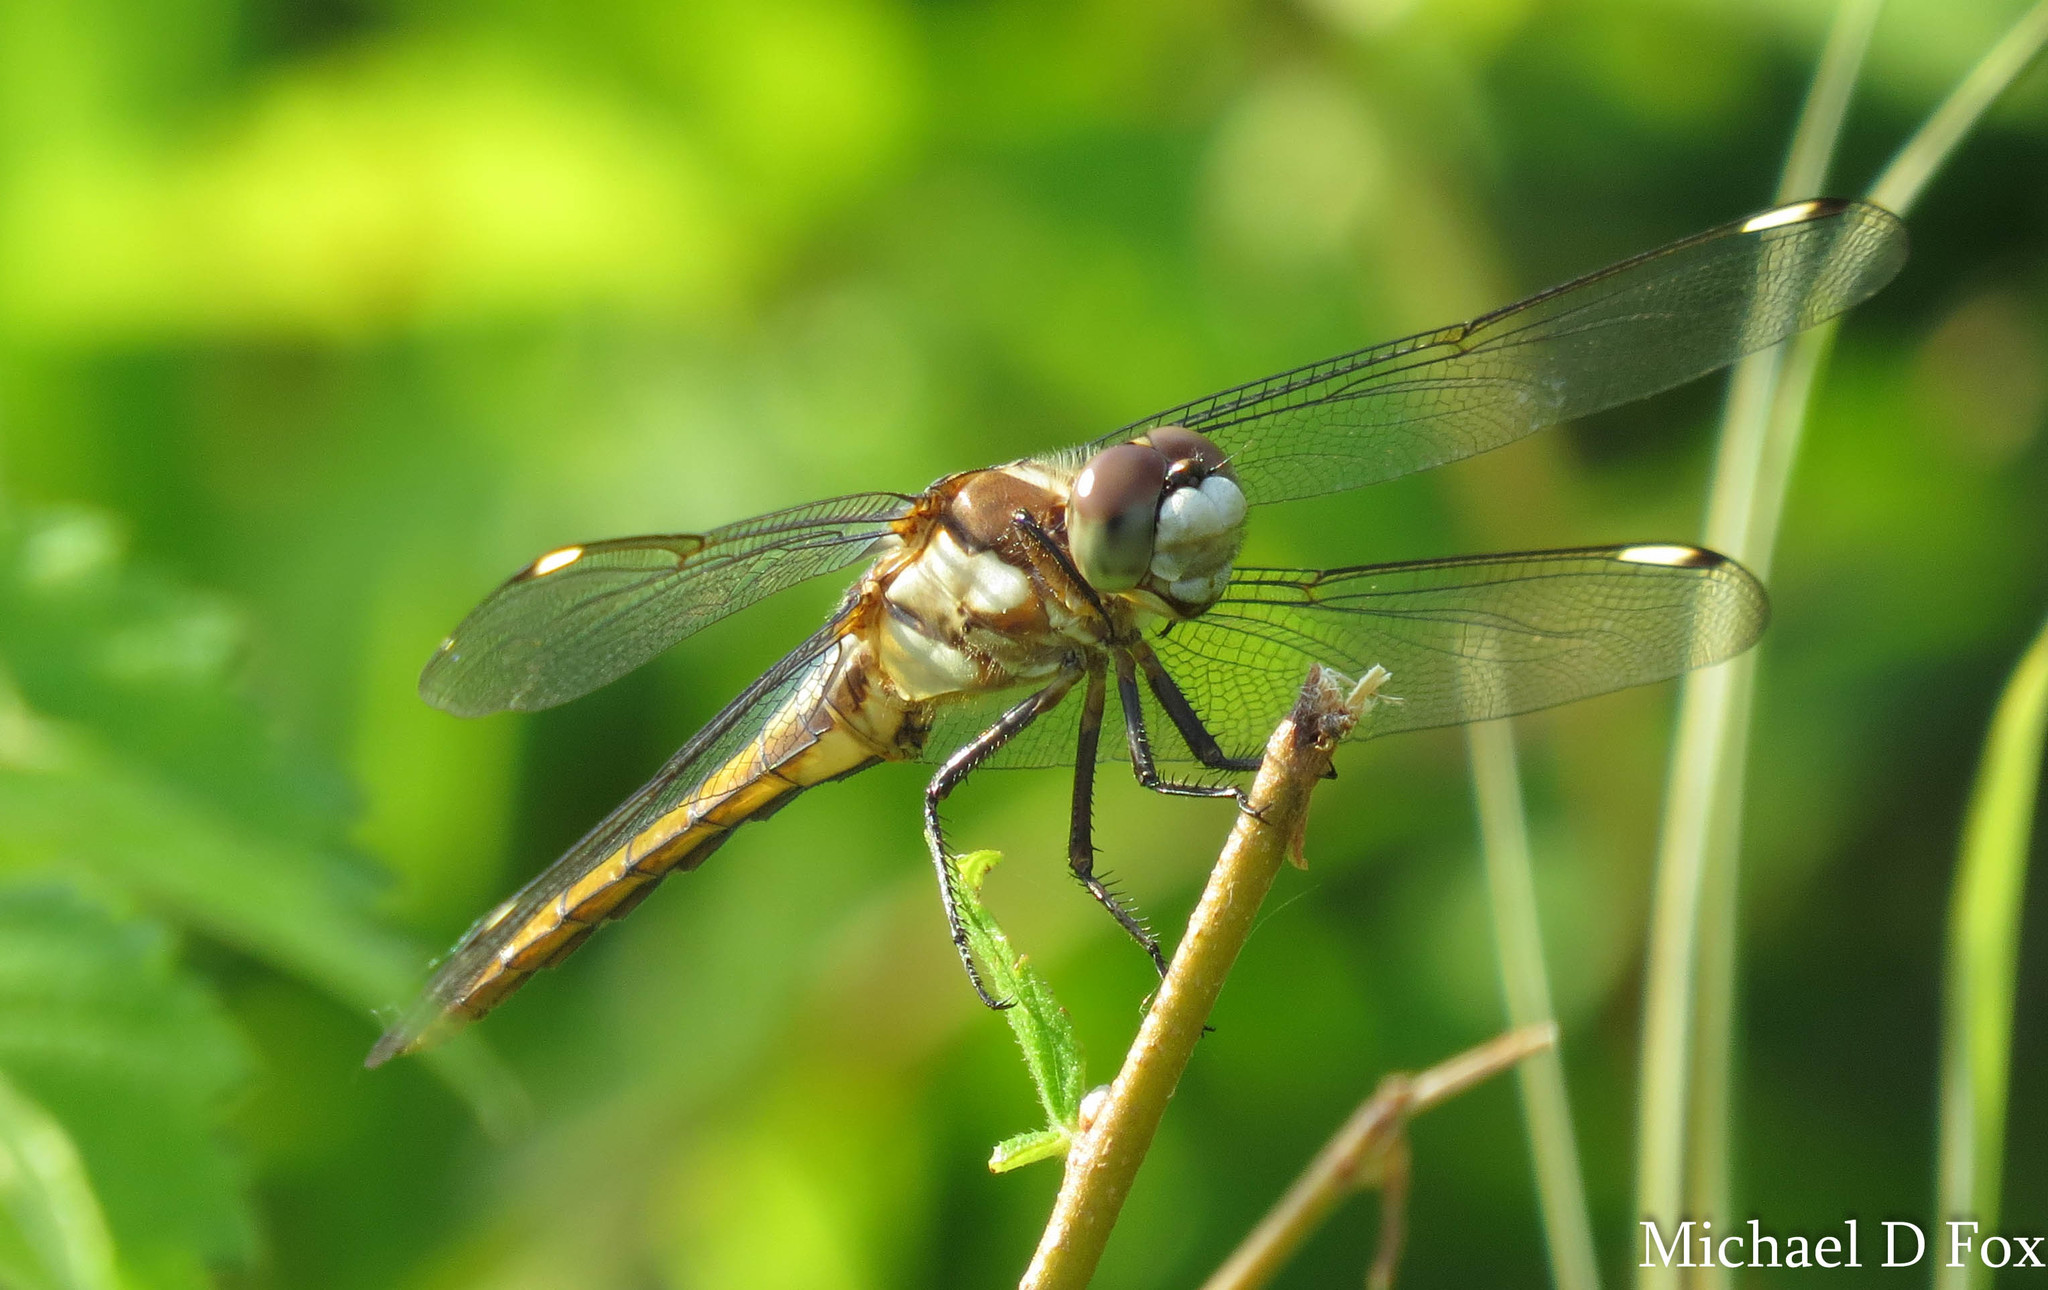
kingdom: Animalia
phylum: Arthropoda
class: Insecta
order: Odonata
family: Libellulidae
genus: Libellula
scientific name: Libellula comanche
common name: Comanche skimmer
